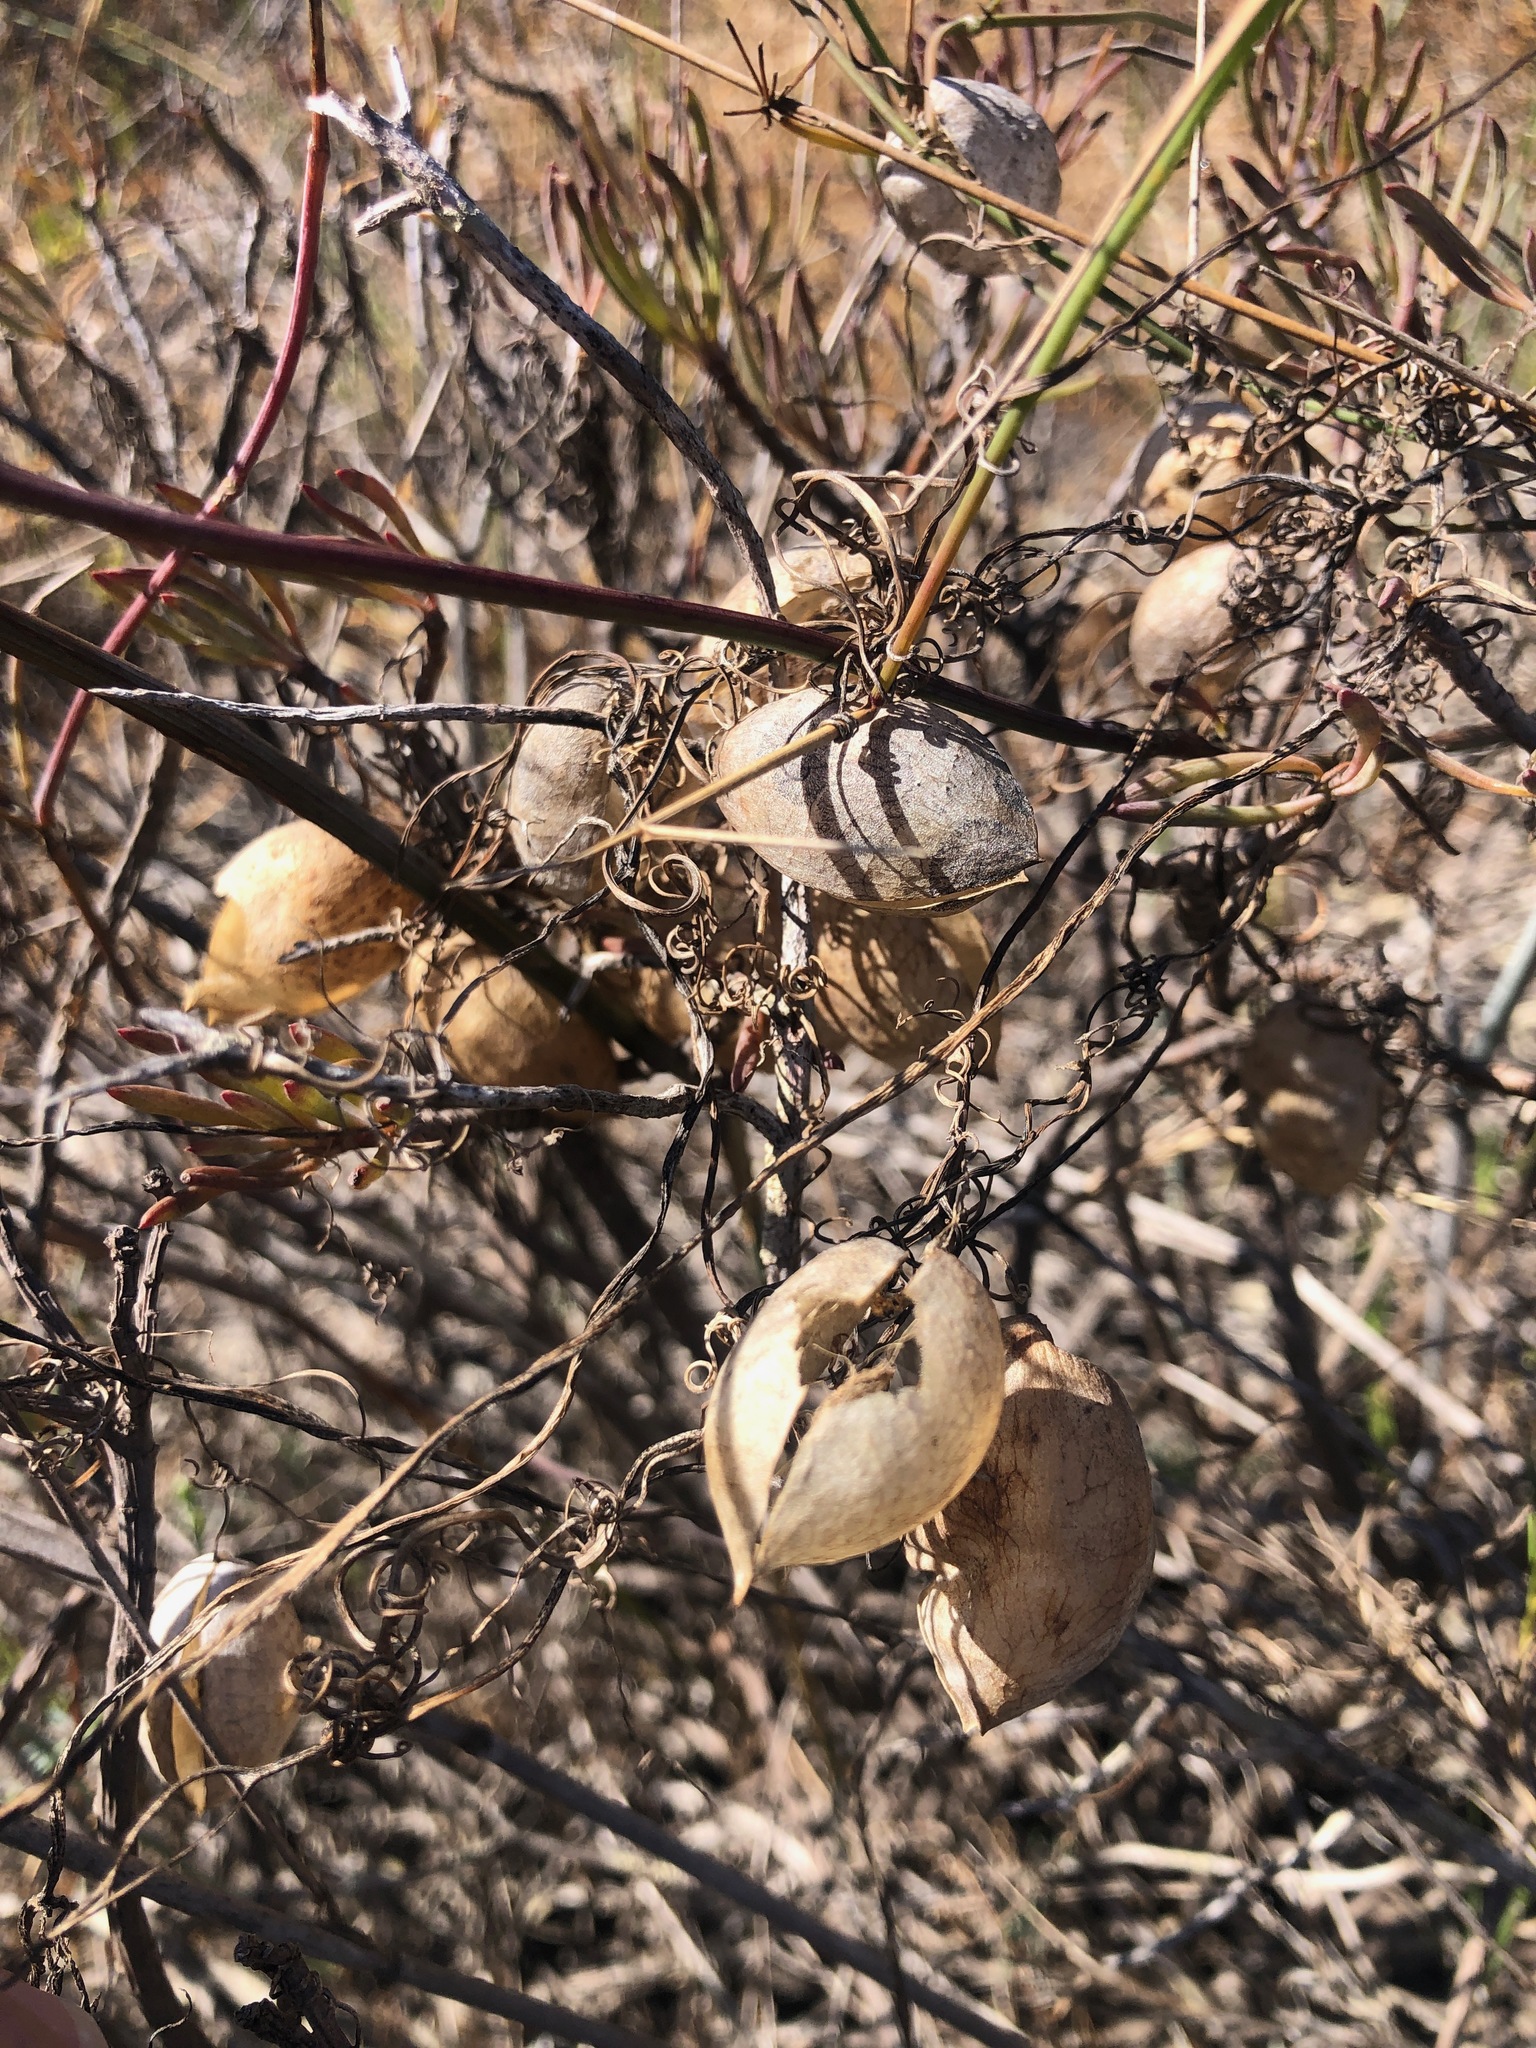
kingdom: Plantae
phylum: Tracheophyta
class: Magnoliopsida
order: Ranunculales
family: Papaveraceae
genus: Cysticapnos
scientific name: Cysticapnos vesicaria
